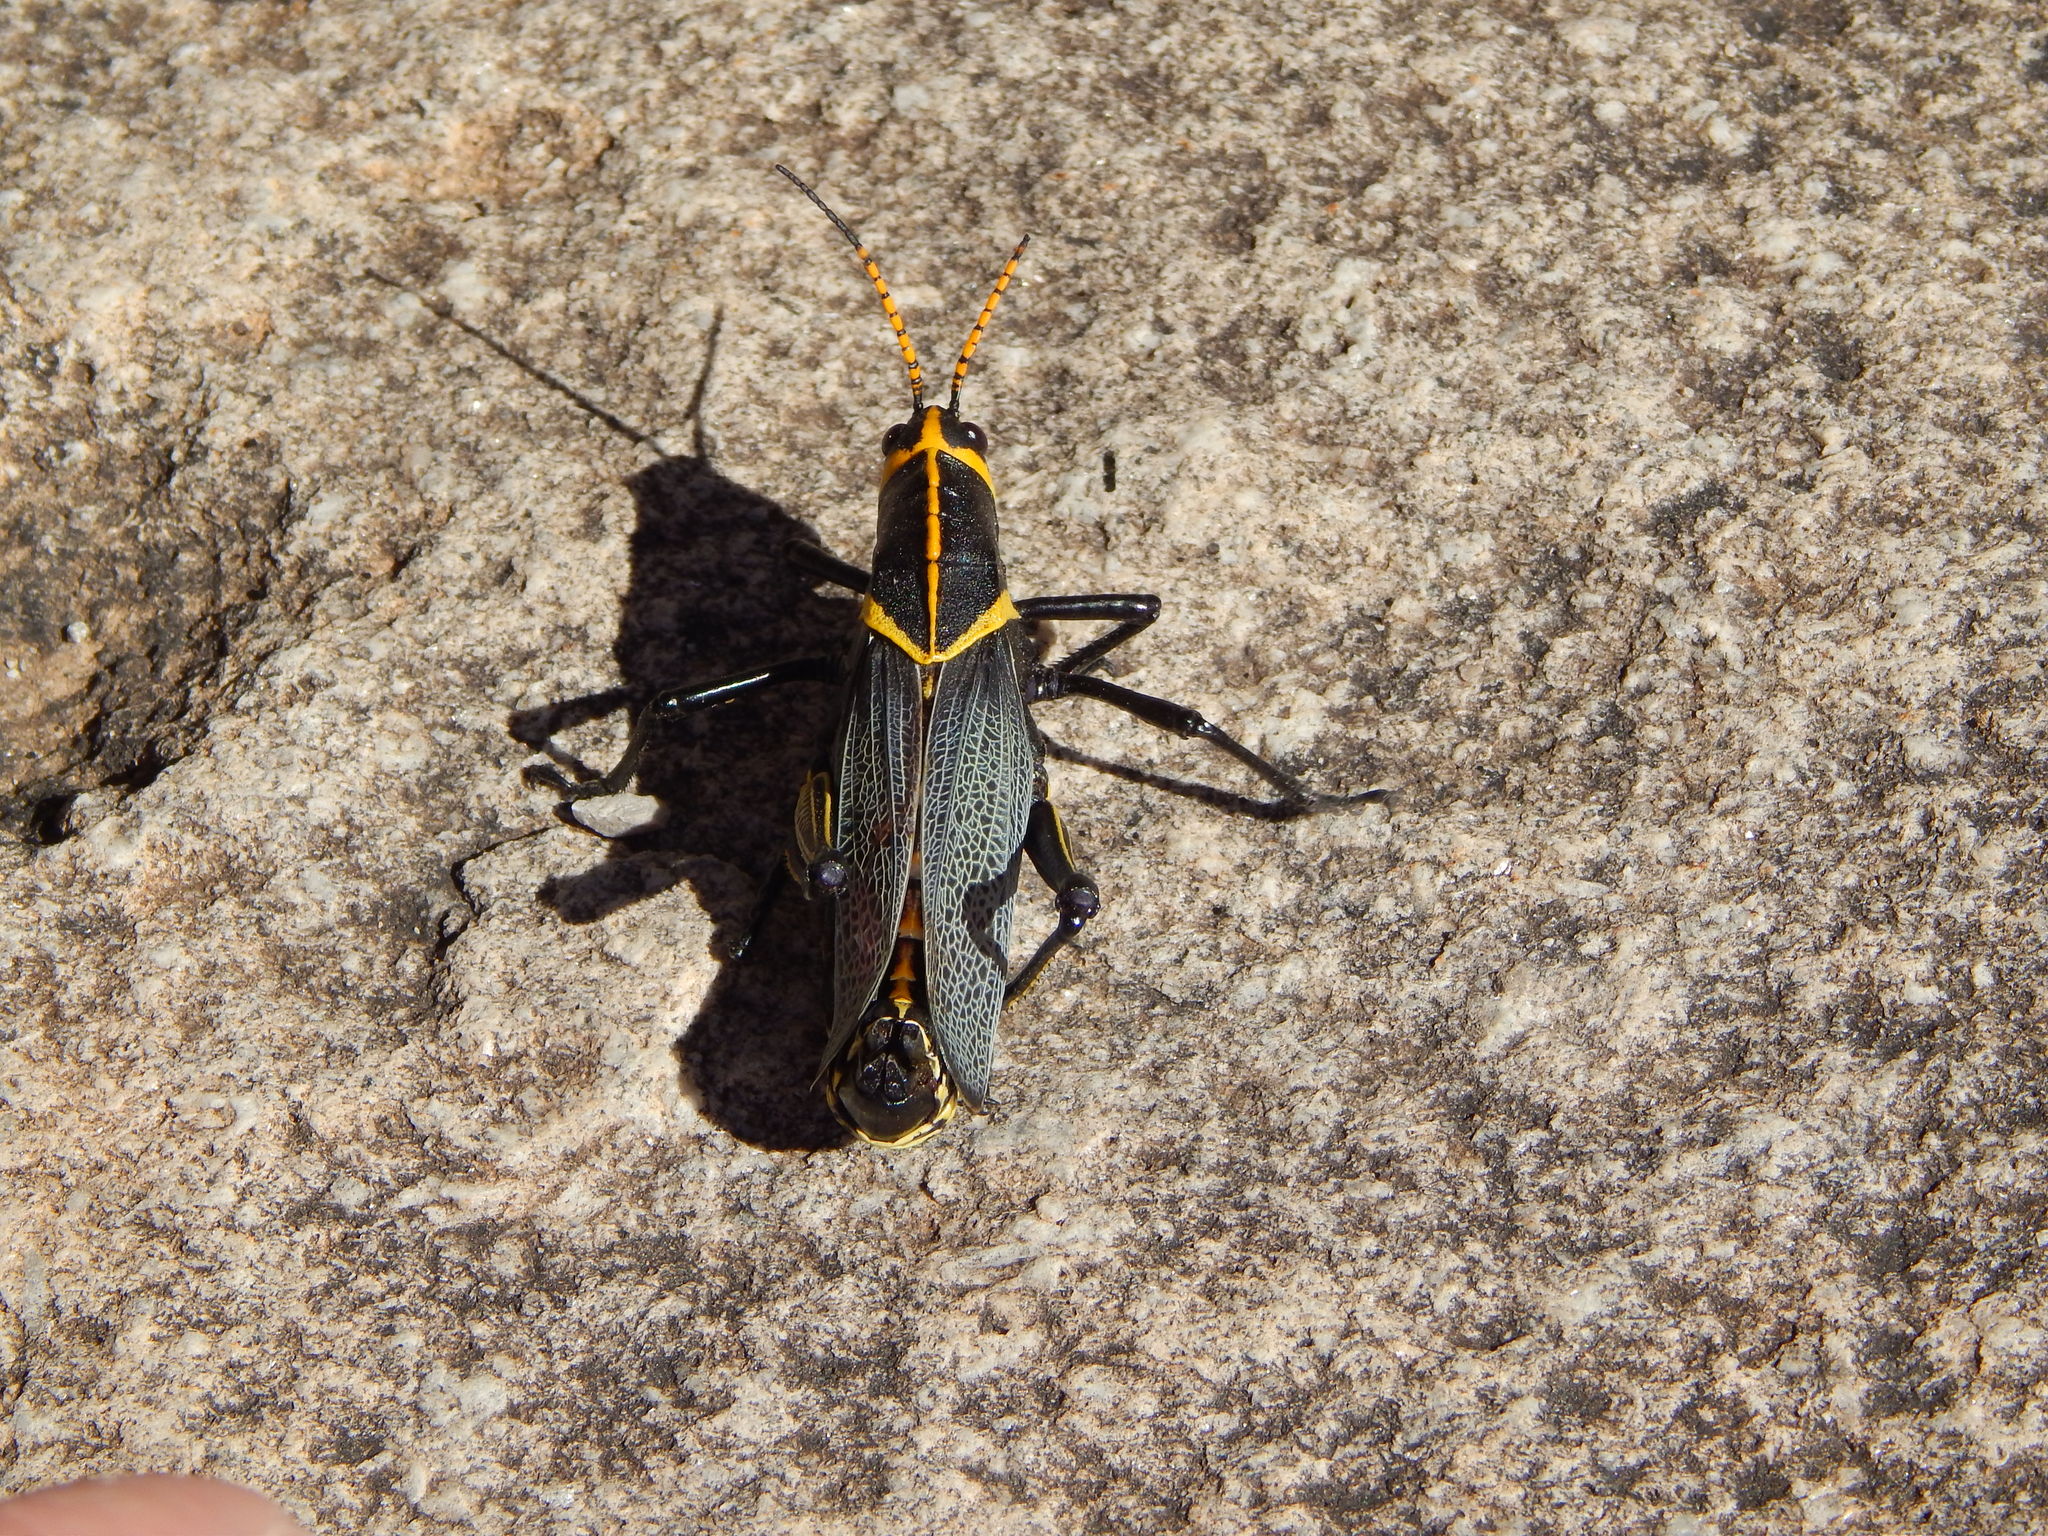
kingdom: Animalia
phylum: Arthropoda
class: Insecta
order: Orthoptera
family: Romaleidae
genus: Romalea
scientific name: Romalea
